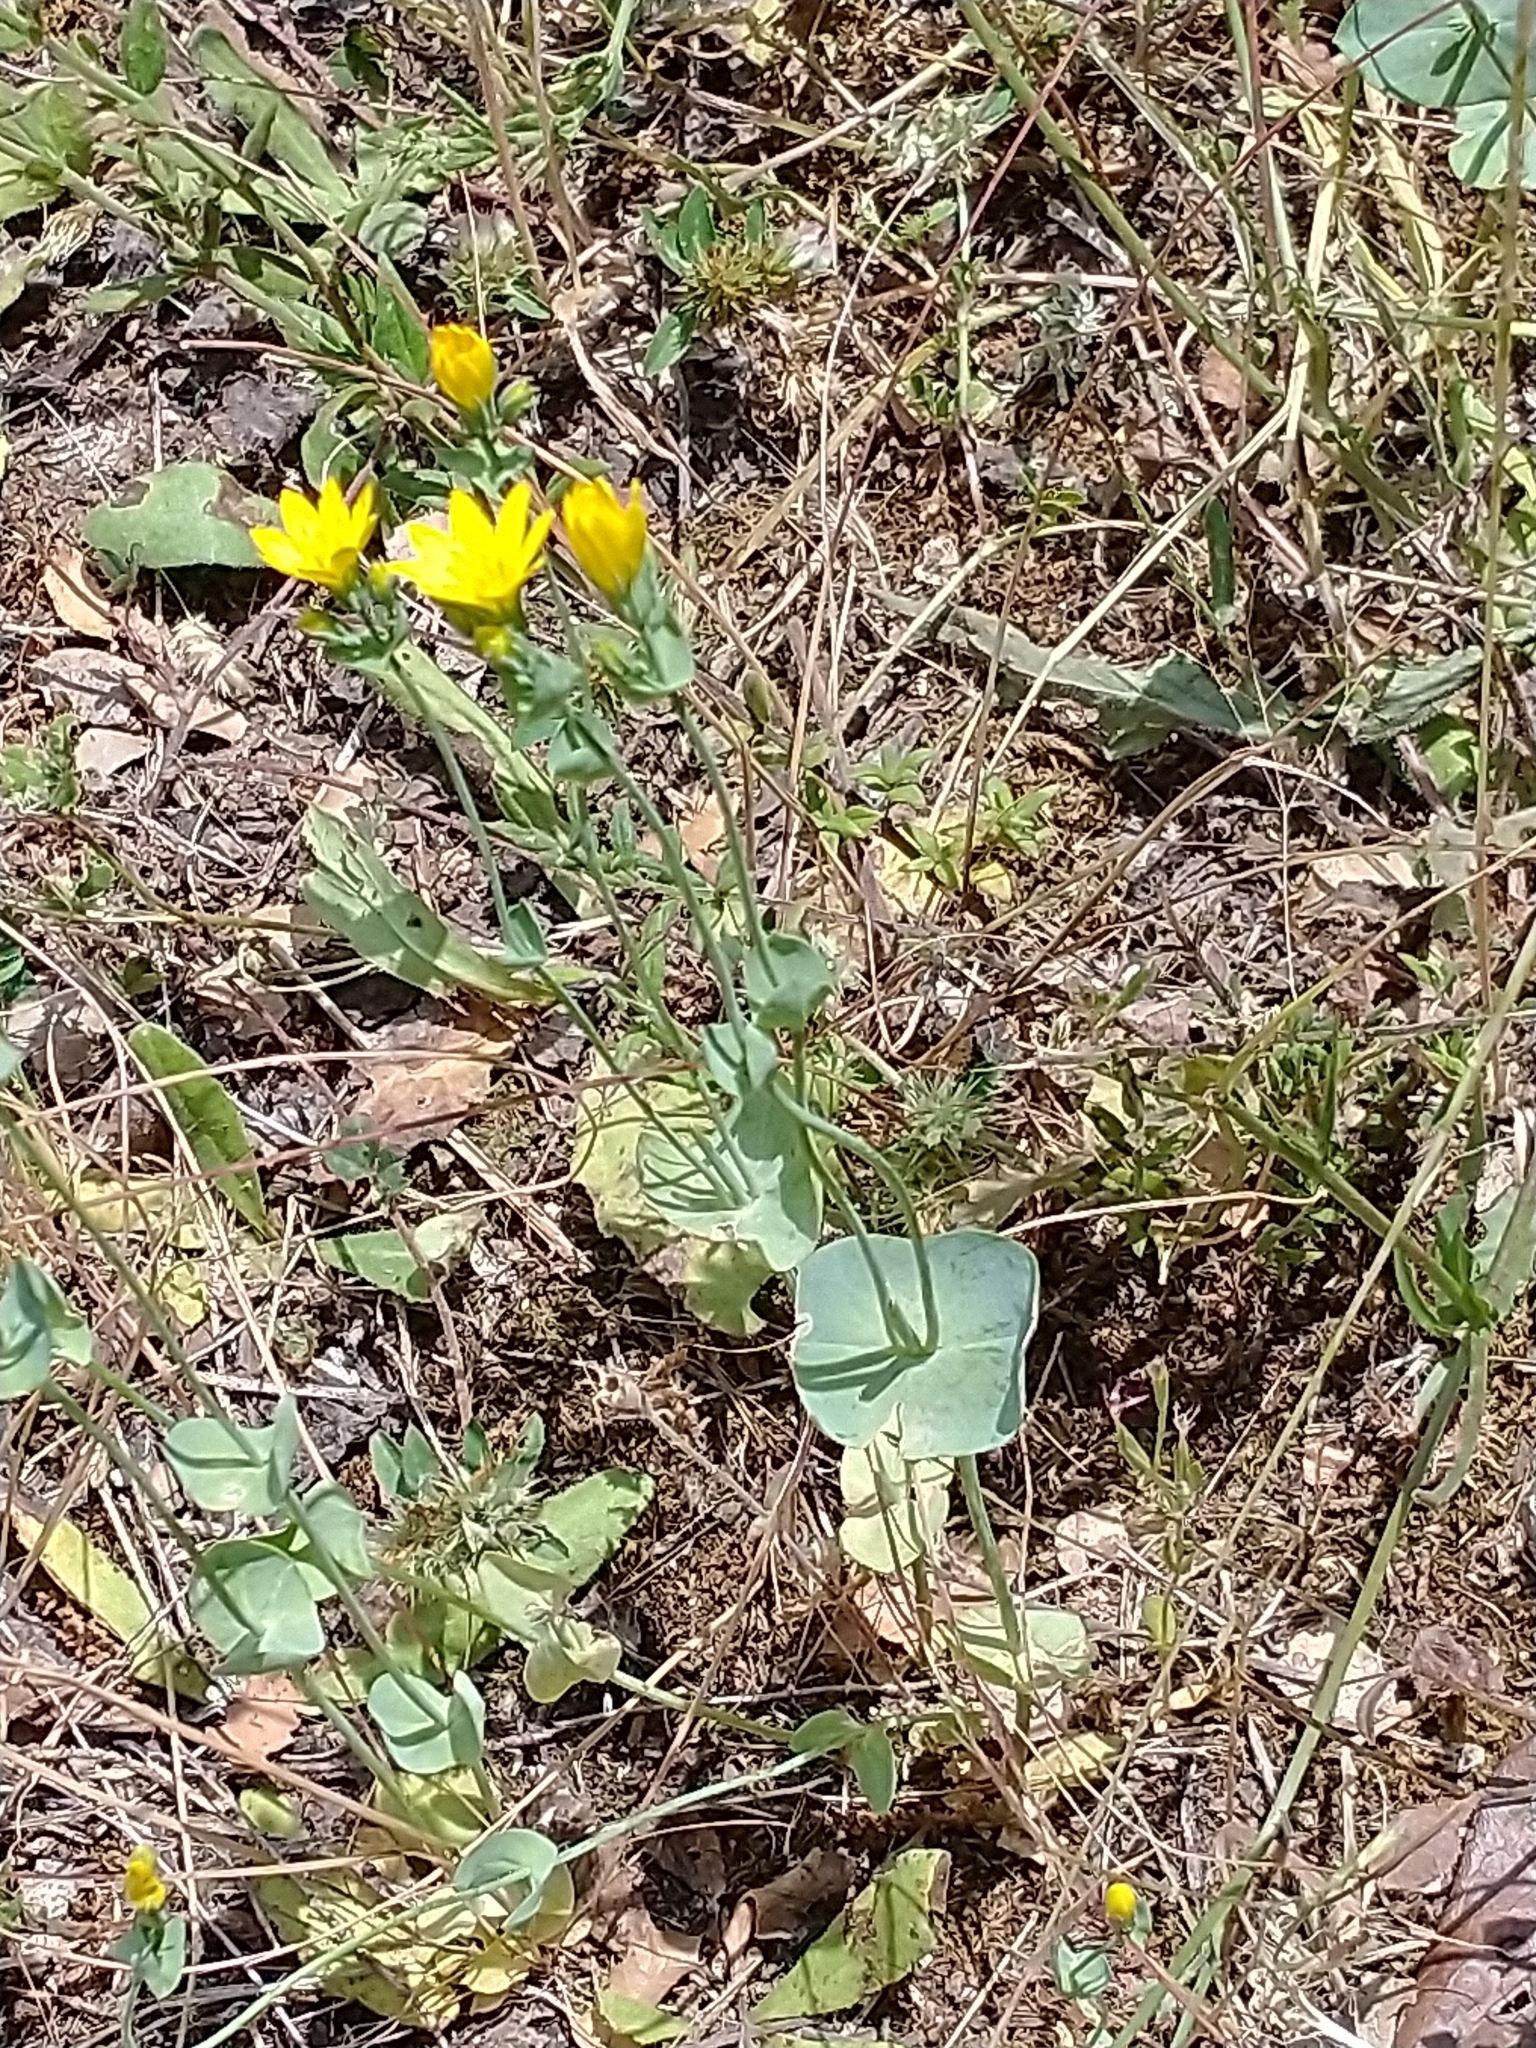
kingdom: Plantae
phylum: Tracheophyta
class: Magnoliopsida
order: Gentianales
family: Gentianaceae
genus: Blackstonia
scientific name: Blackstonia perfoliata
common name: Yellow-wort
